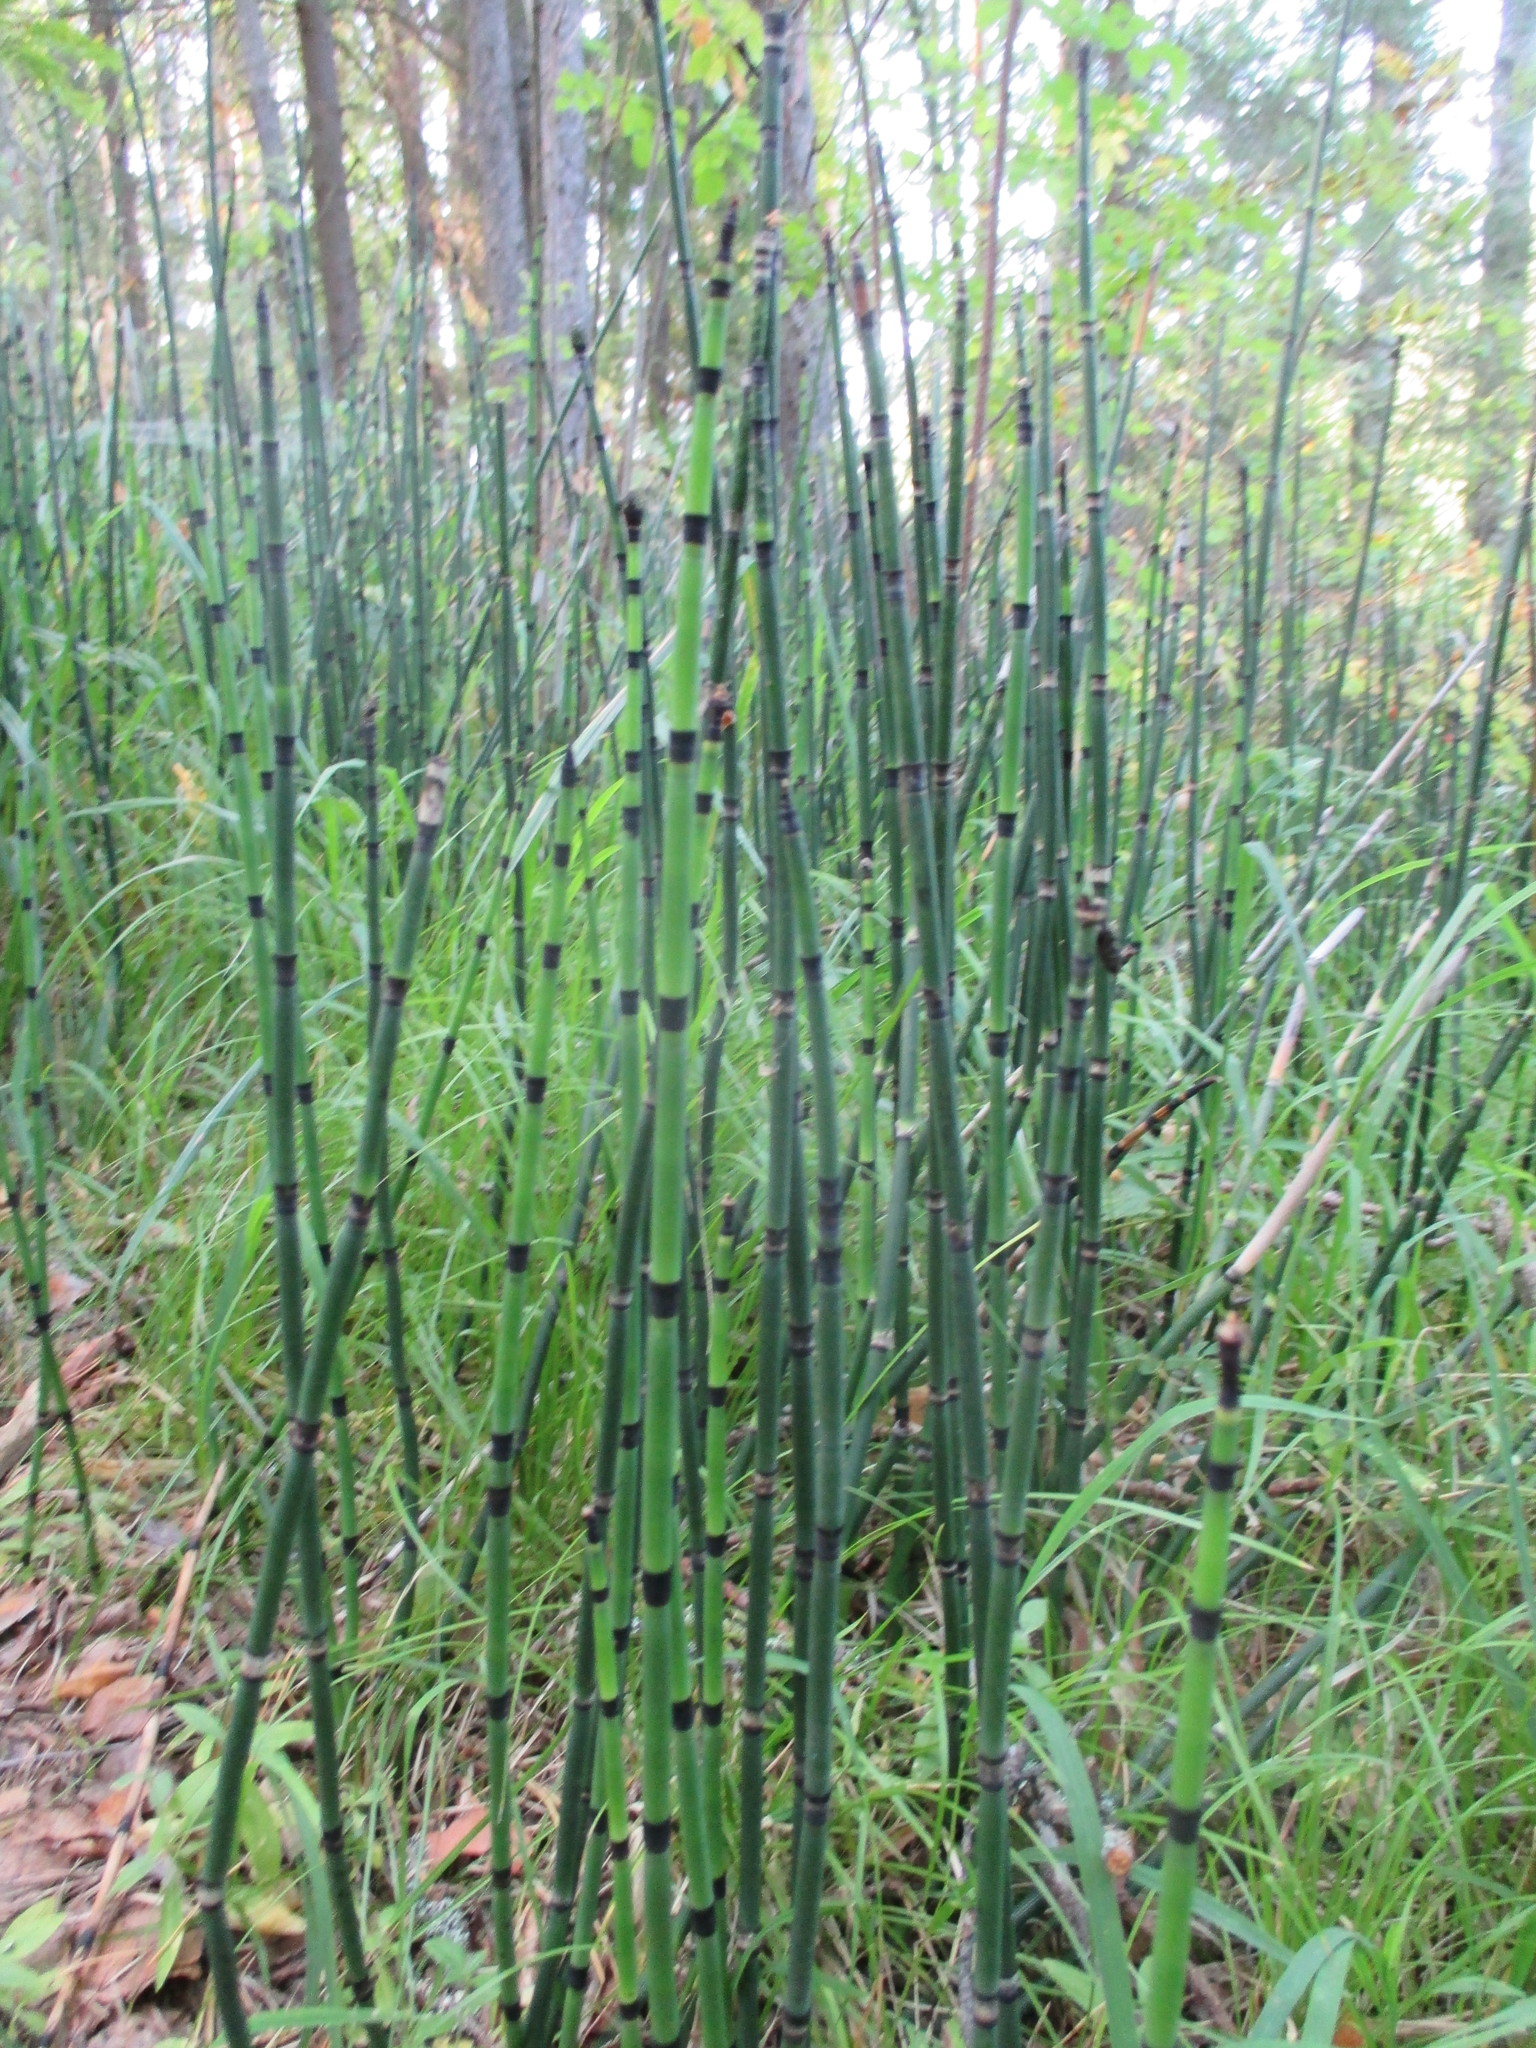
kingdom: Plantae
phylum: Tracheophyta
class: Polypodiopsida
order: Equisetales
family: Equisetaceae
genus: Equisetum
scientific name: Equisetum hyemale
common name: Rough horsetail
